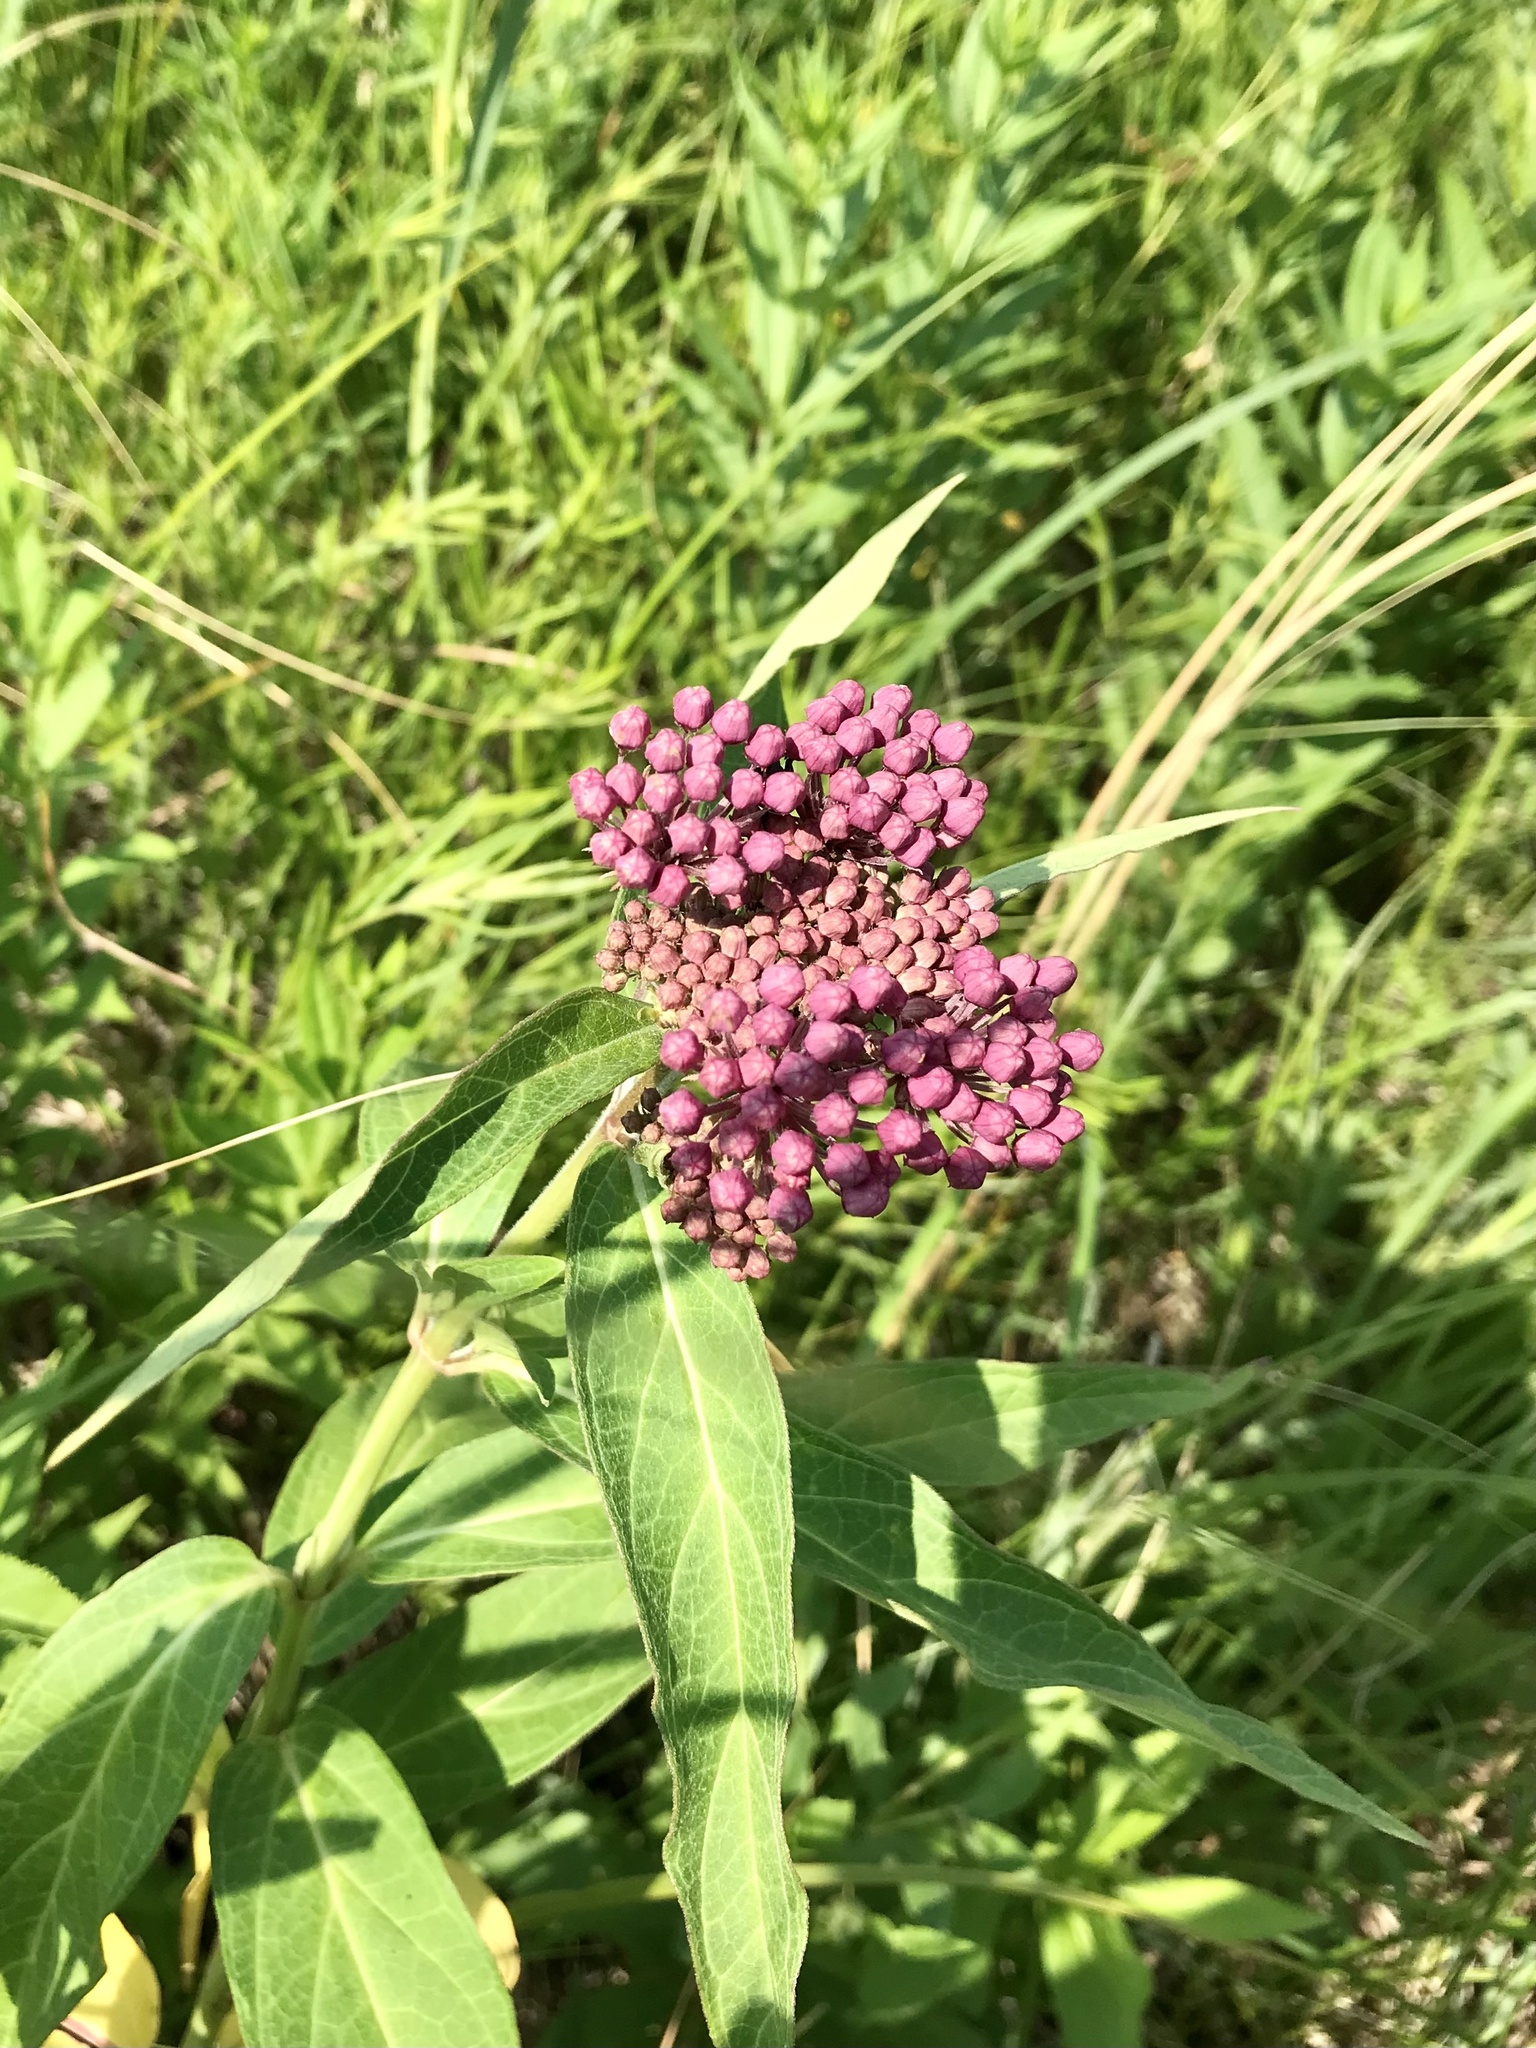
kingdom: Plantae
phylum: Tracheophyta
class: Magnoliopsida
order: Gentianales
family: Apocynaceae
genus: Asclepias
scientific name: Asclepias incarnata
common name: Swamp milkweed
